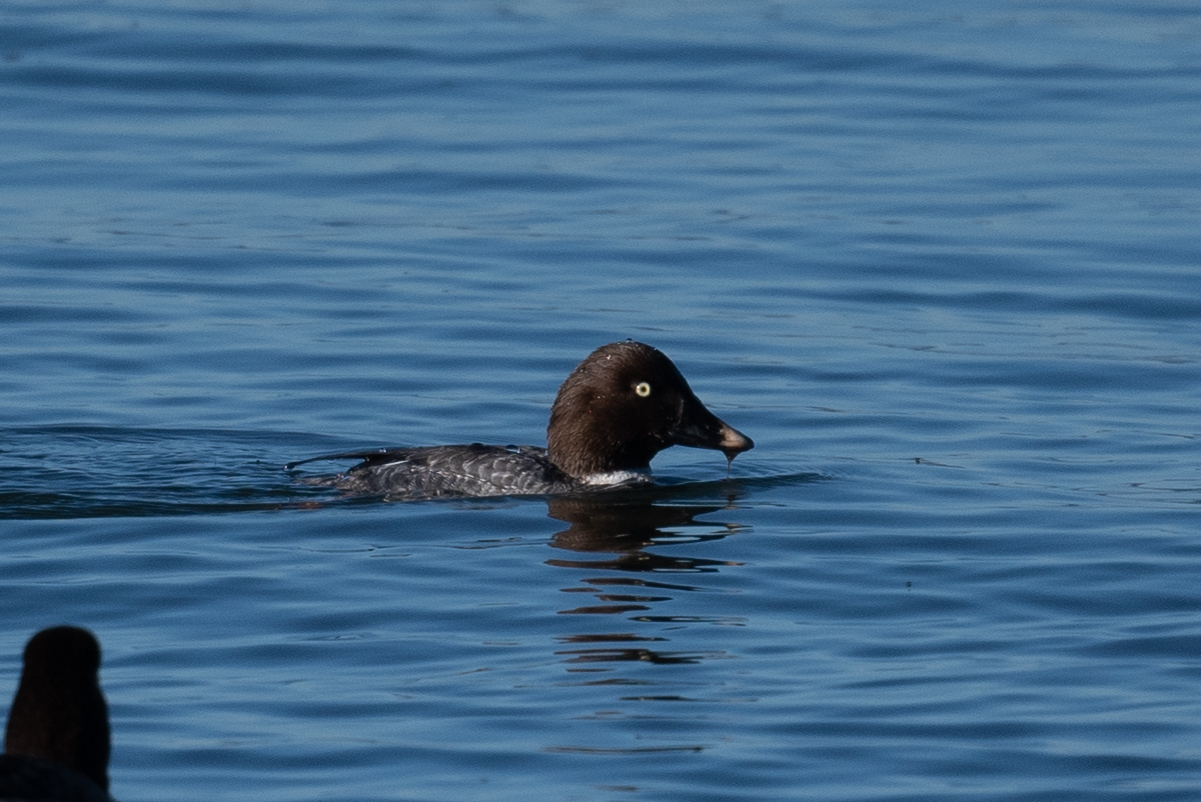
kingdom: Animalia
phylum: Chordata
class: Aves
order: Anseriformes
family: Anatidae
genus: Bucephala
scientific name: Bucephala clangula
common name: Common goldeneye
